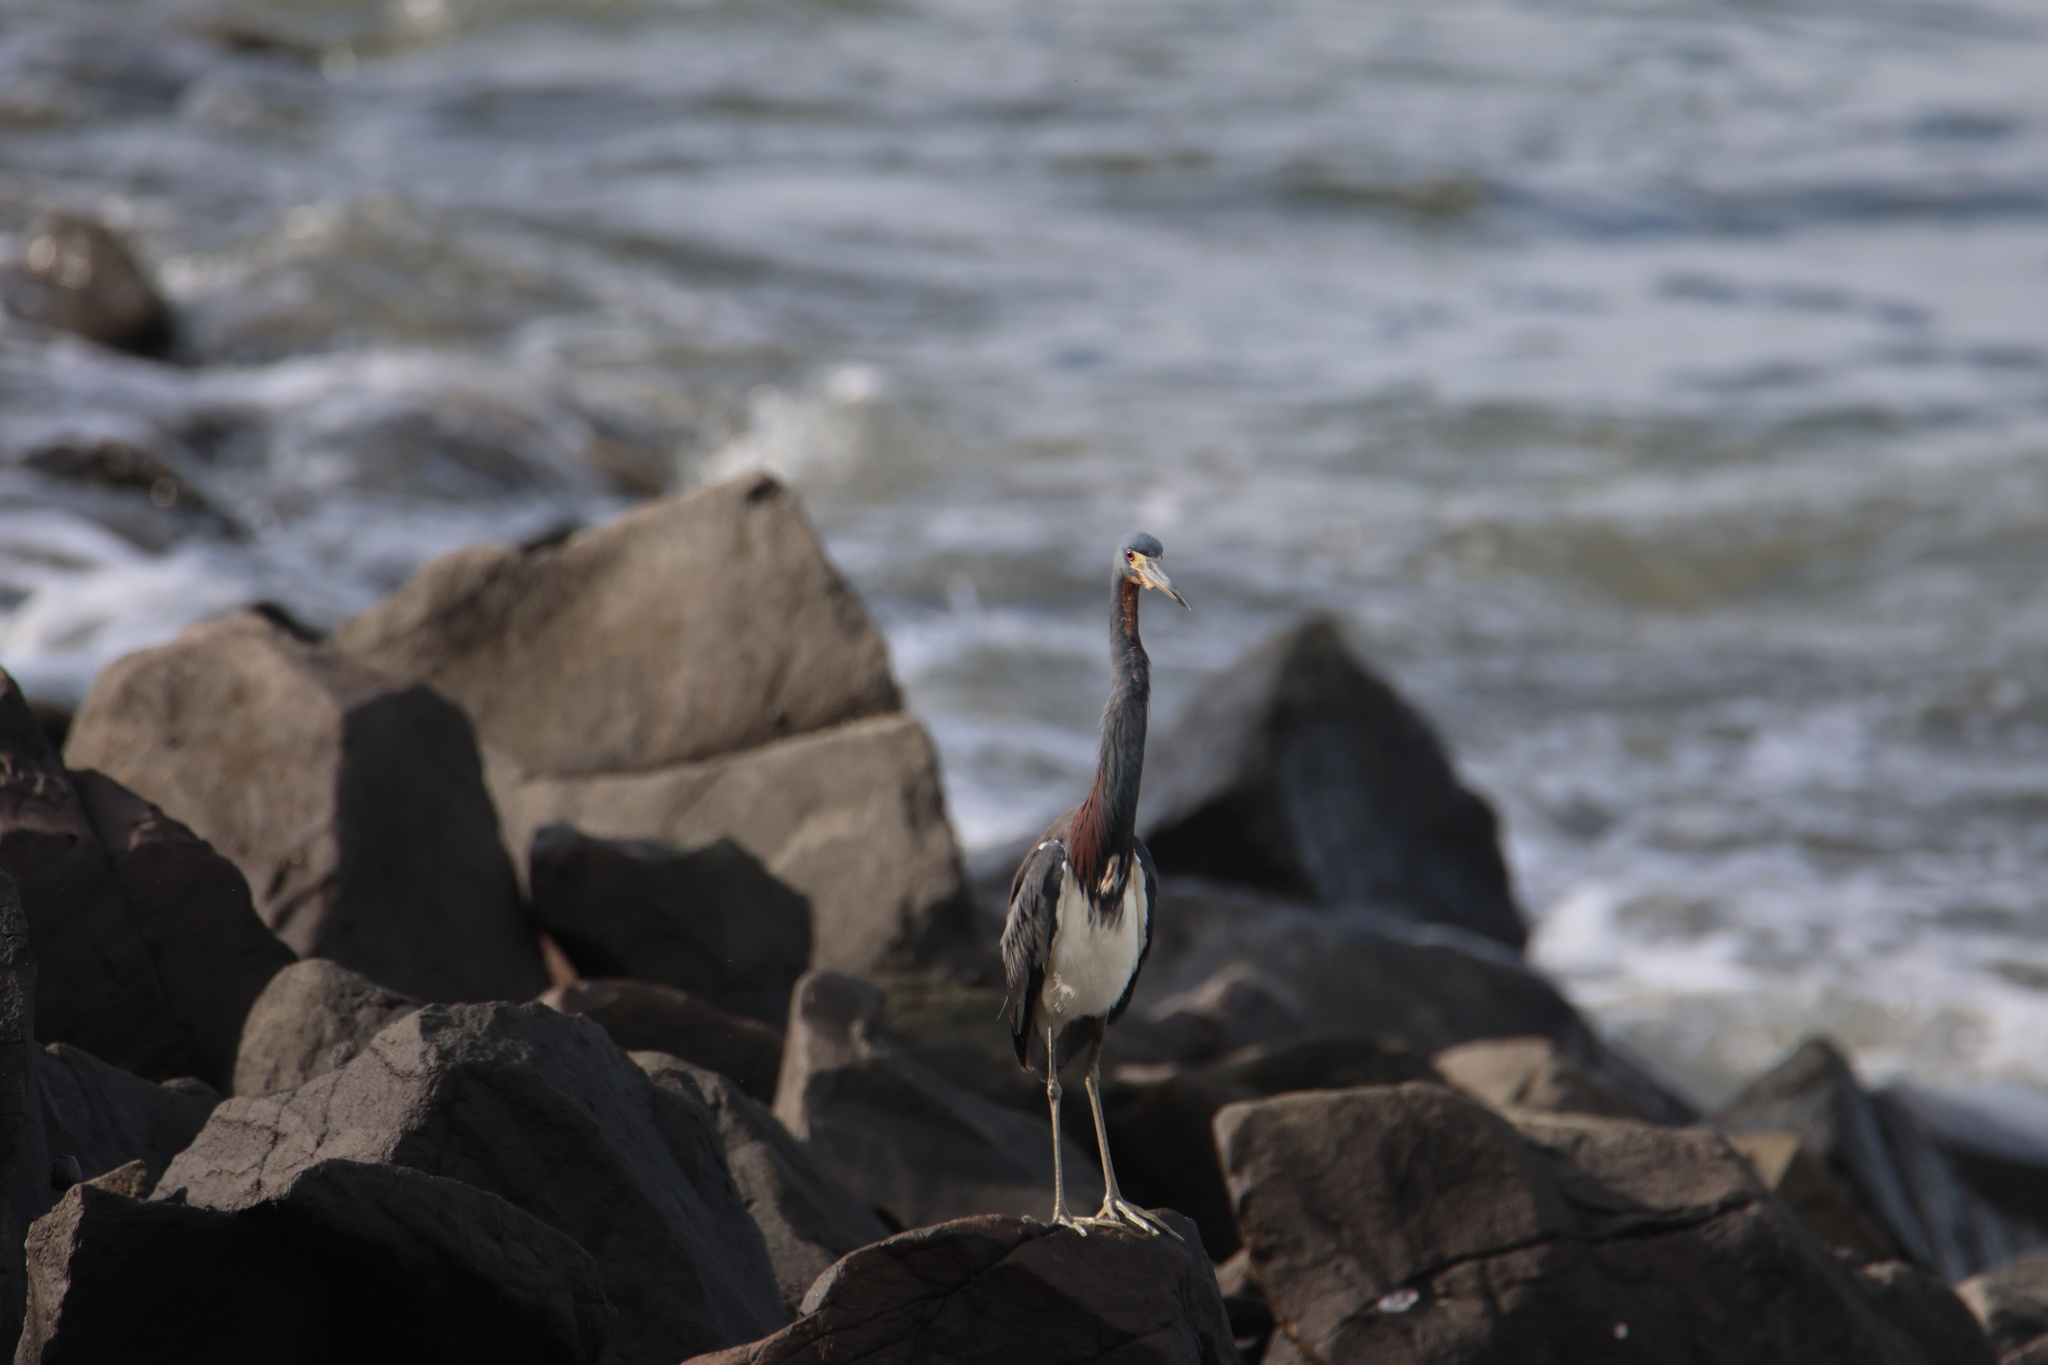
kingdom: Animalia
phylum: Chordata
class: Aves
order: Pelecaniformes
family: Ardeidae
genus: Egretta
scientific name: Egretta tricolor
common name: Tricolored heron
